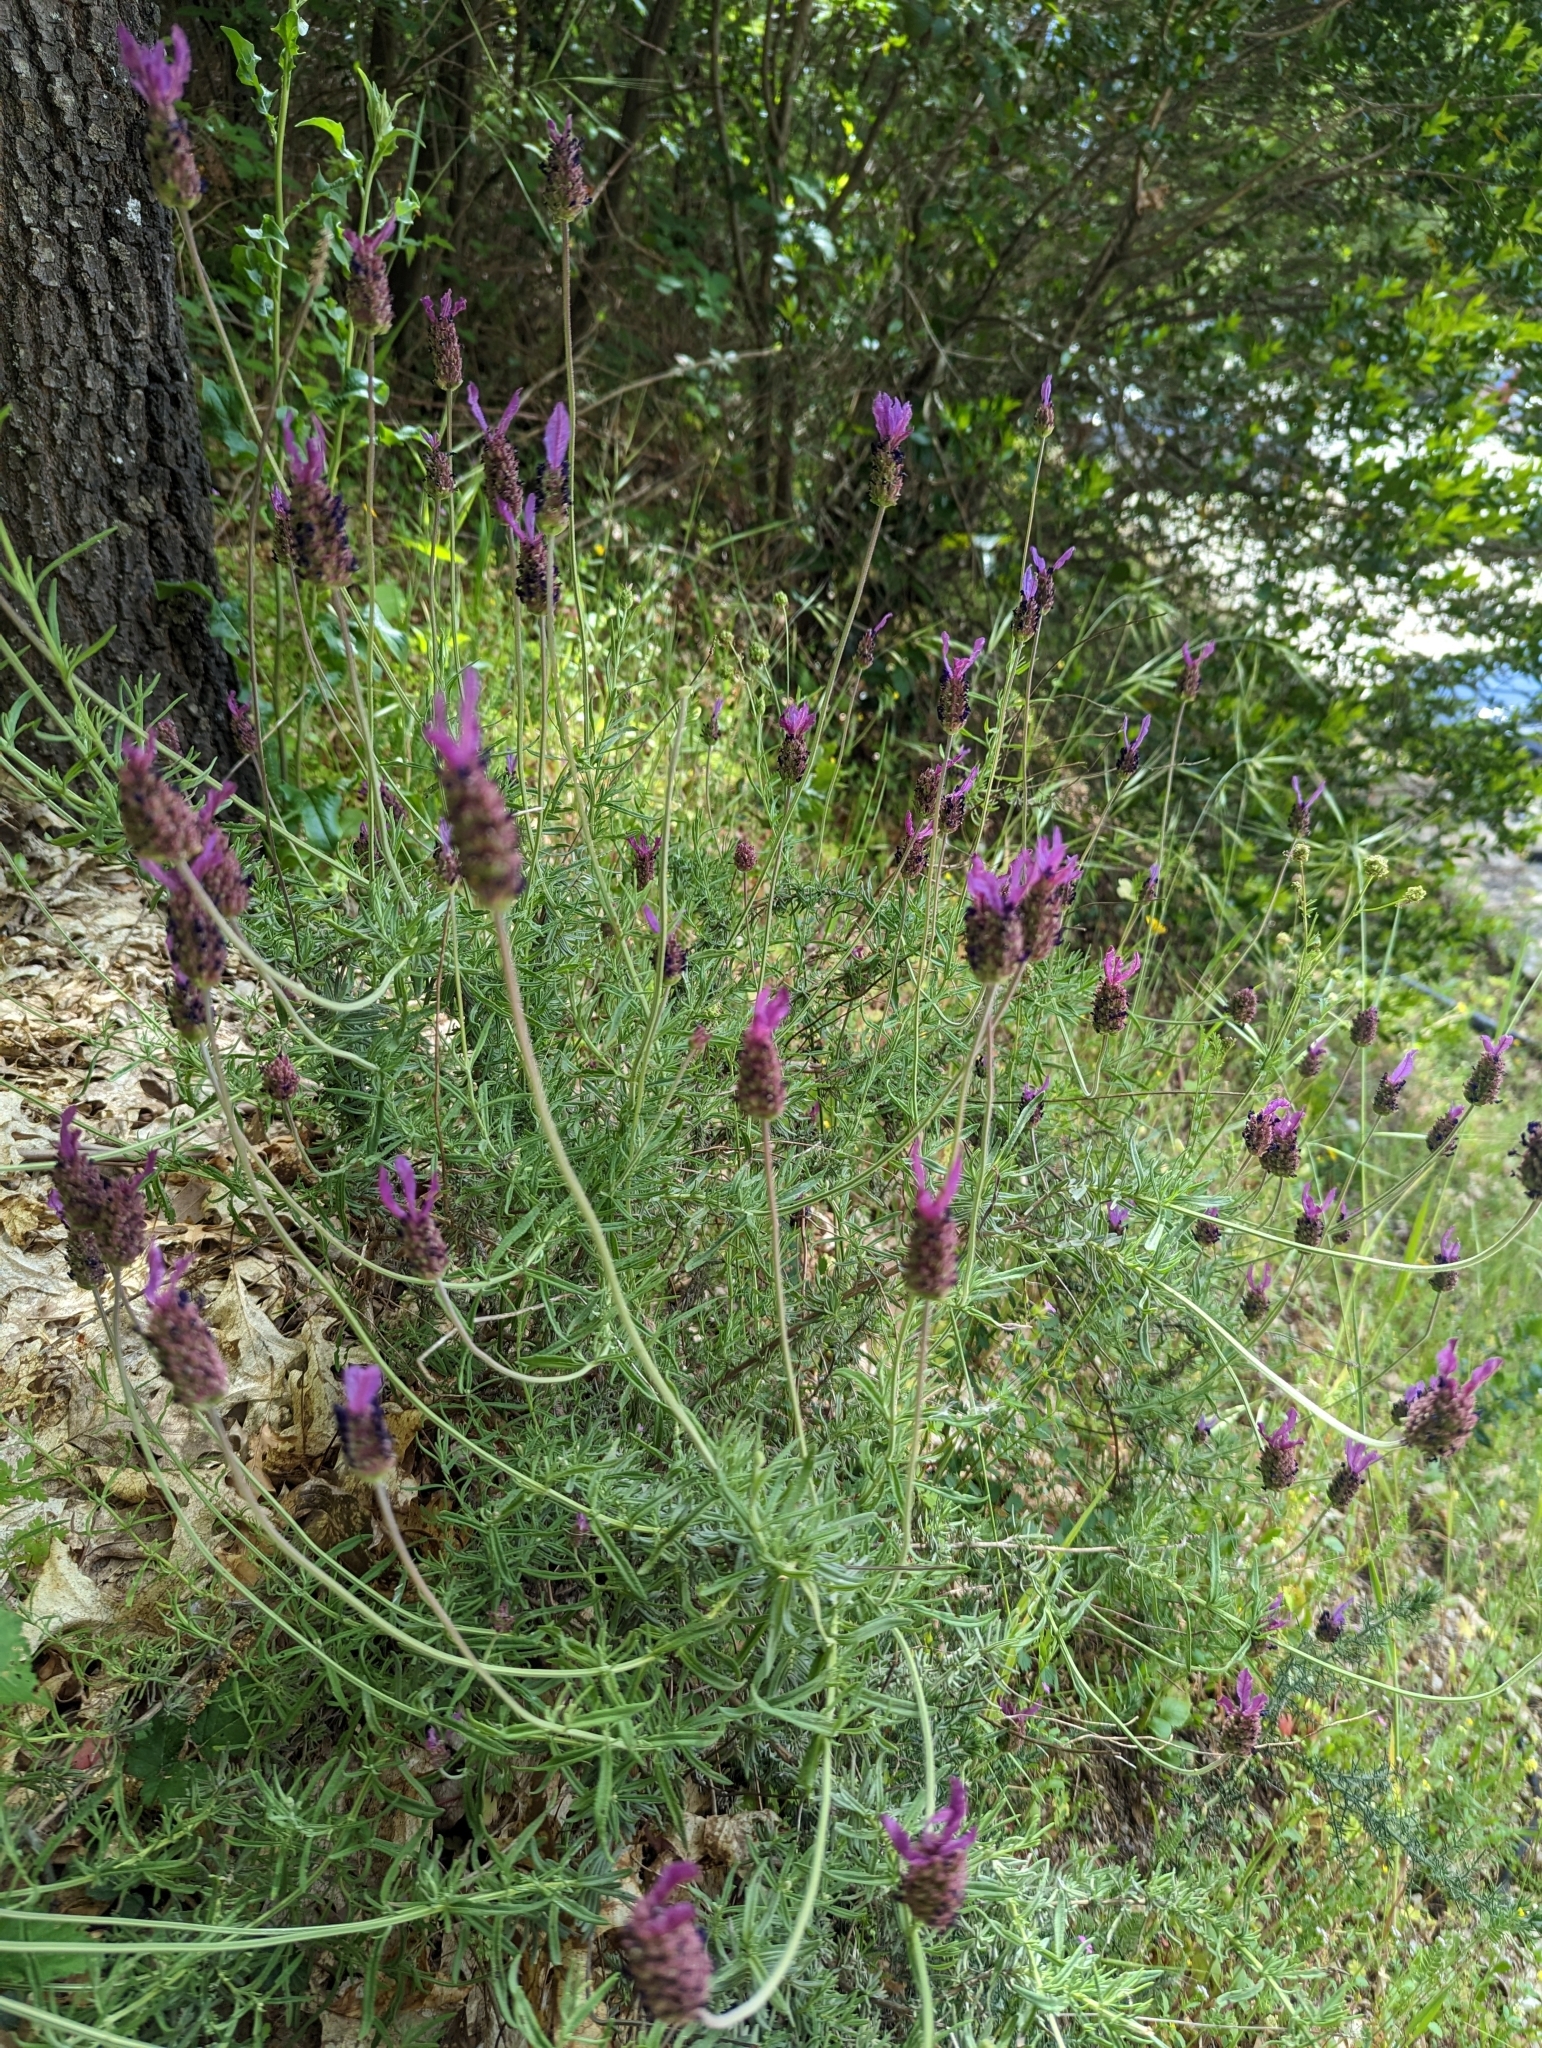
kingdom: Plantae
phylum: Tracheophyta
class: Magnoliopsida
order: Lamiales
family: Lamiaceae
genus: Lavandula
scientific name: Lavandula pedunculata
